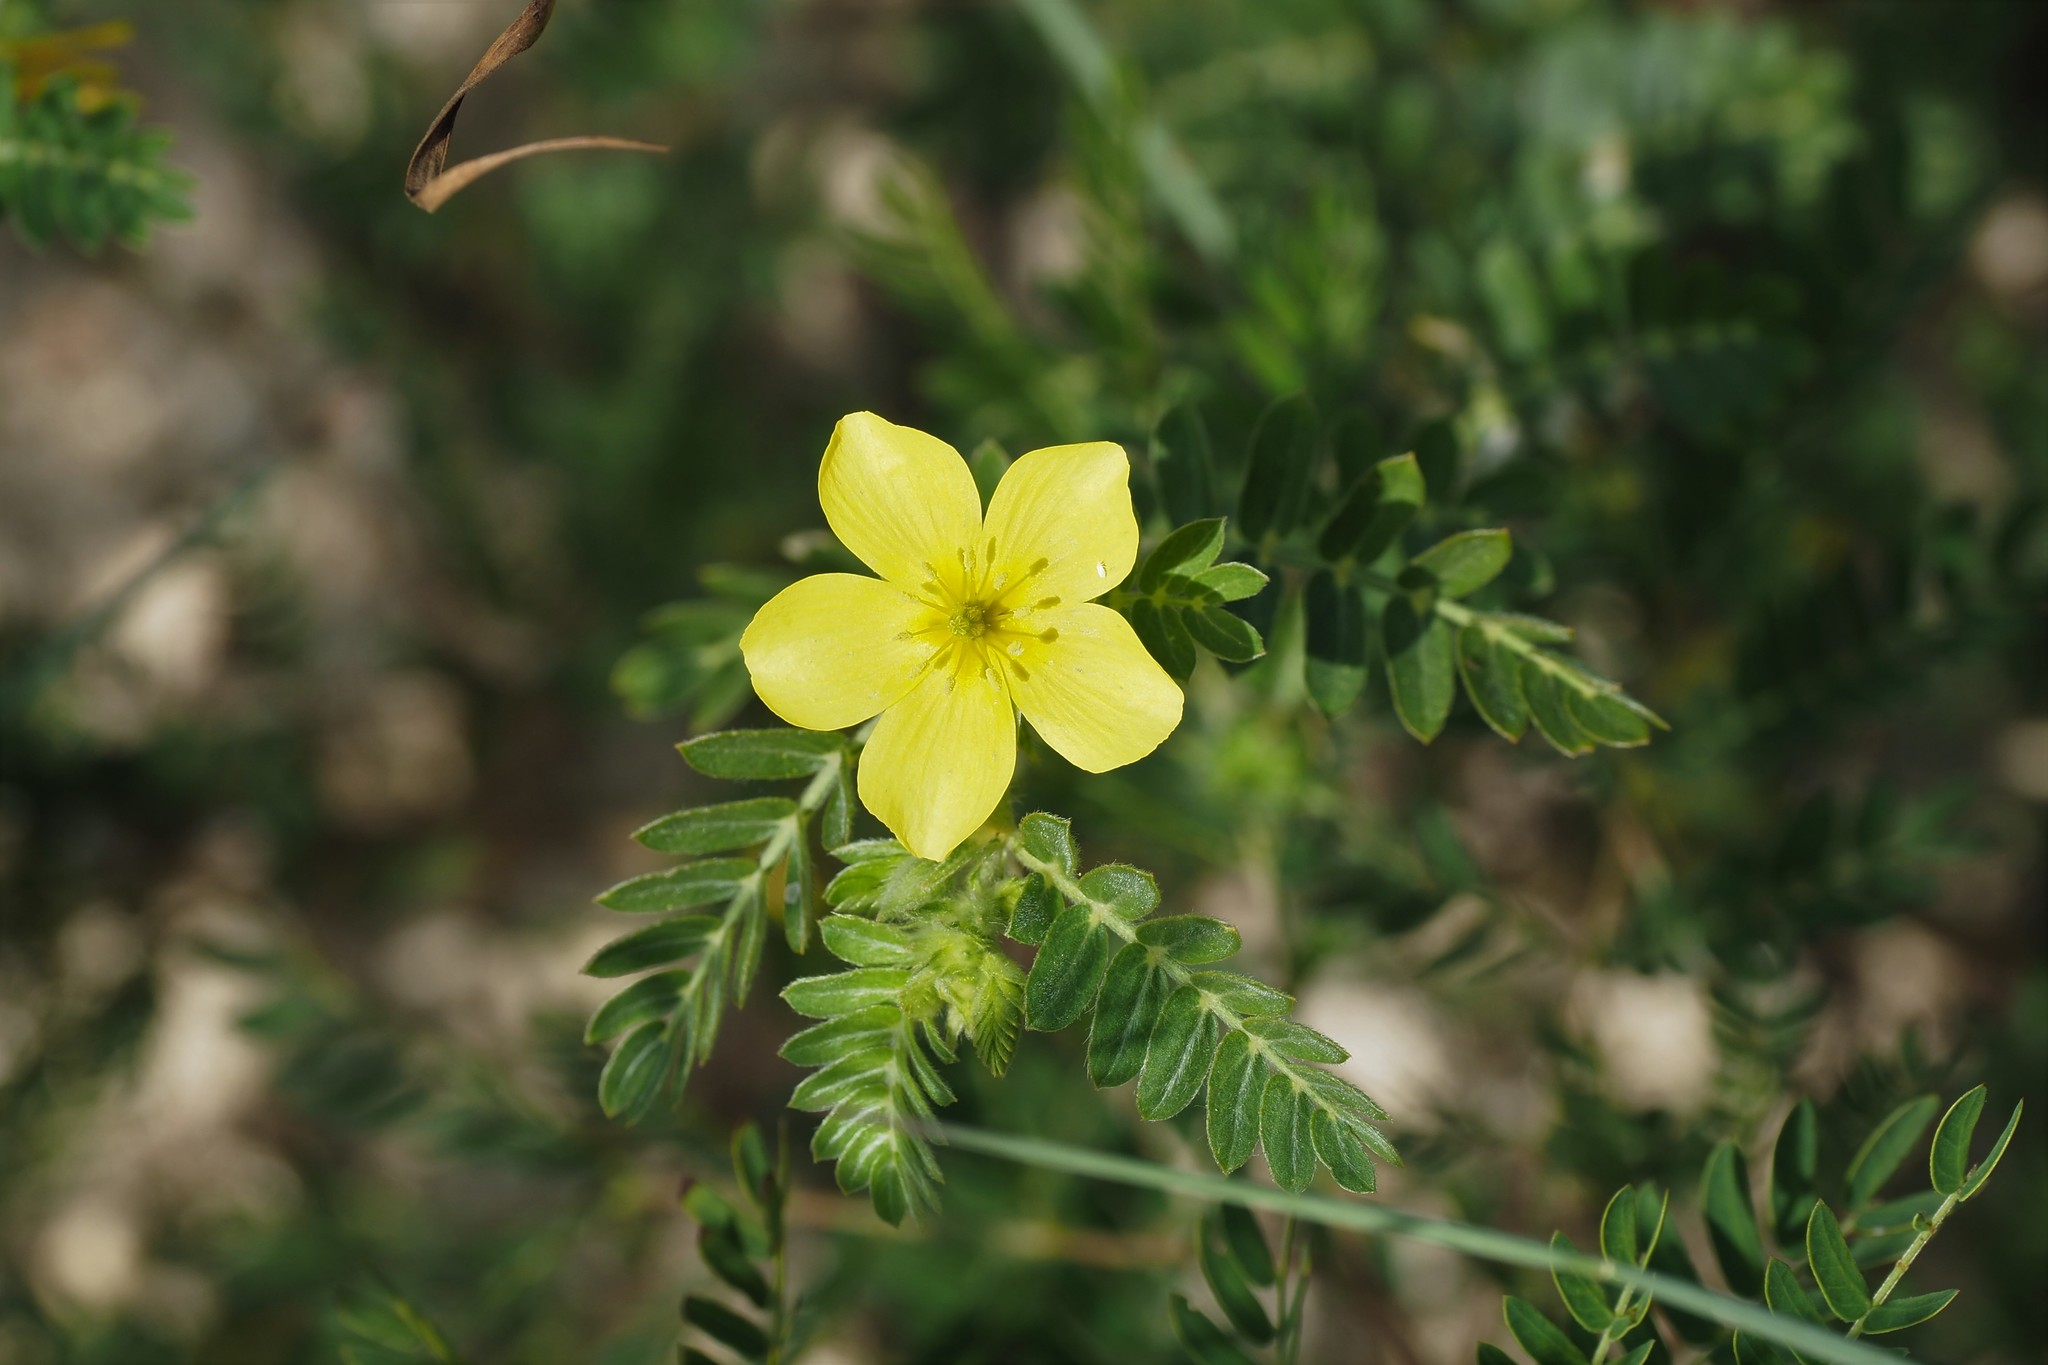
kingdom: Plantae
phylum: Tracheophyta
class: Magnoliopsida
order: Zygophyllales
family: Zygophyllaceae
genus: Tribulus
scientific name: Tribulus cistoides
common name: Jamaican feverplant
